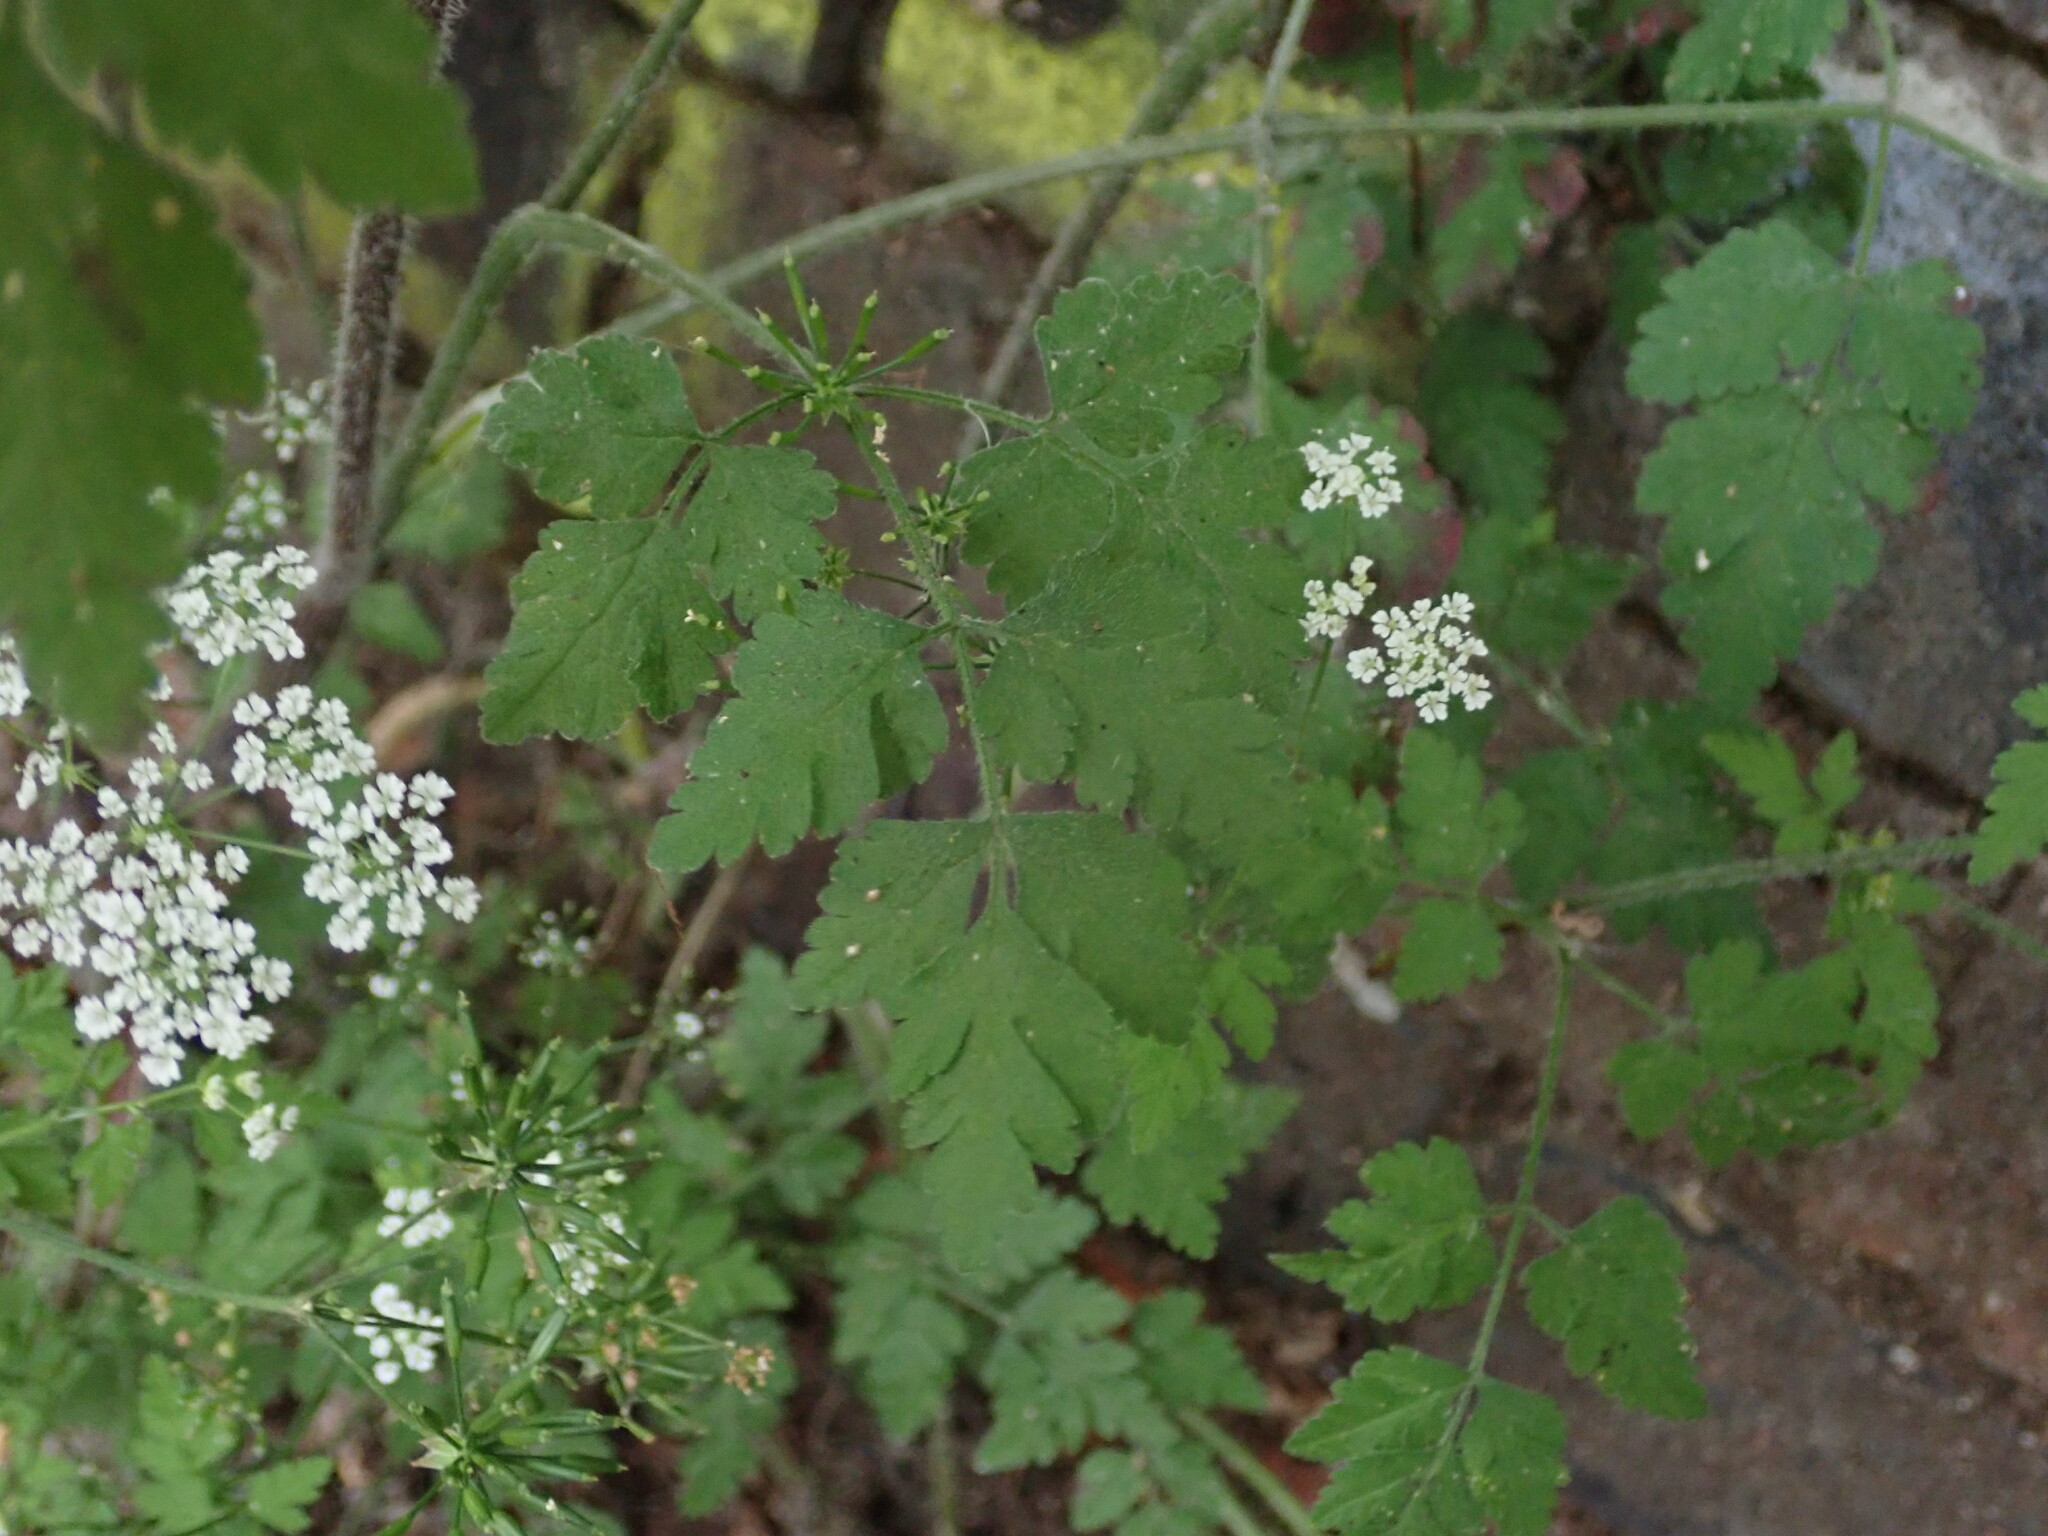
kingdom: Plantae
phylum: Tracheophyta
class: Magnoliopsida
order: Apiales
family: Apiaceae
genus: Chaerophyllum
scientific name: Chaerophyllum temulum
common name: Rough chervil
